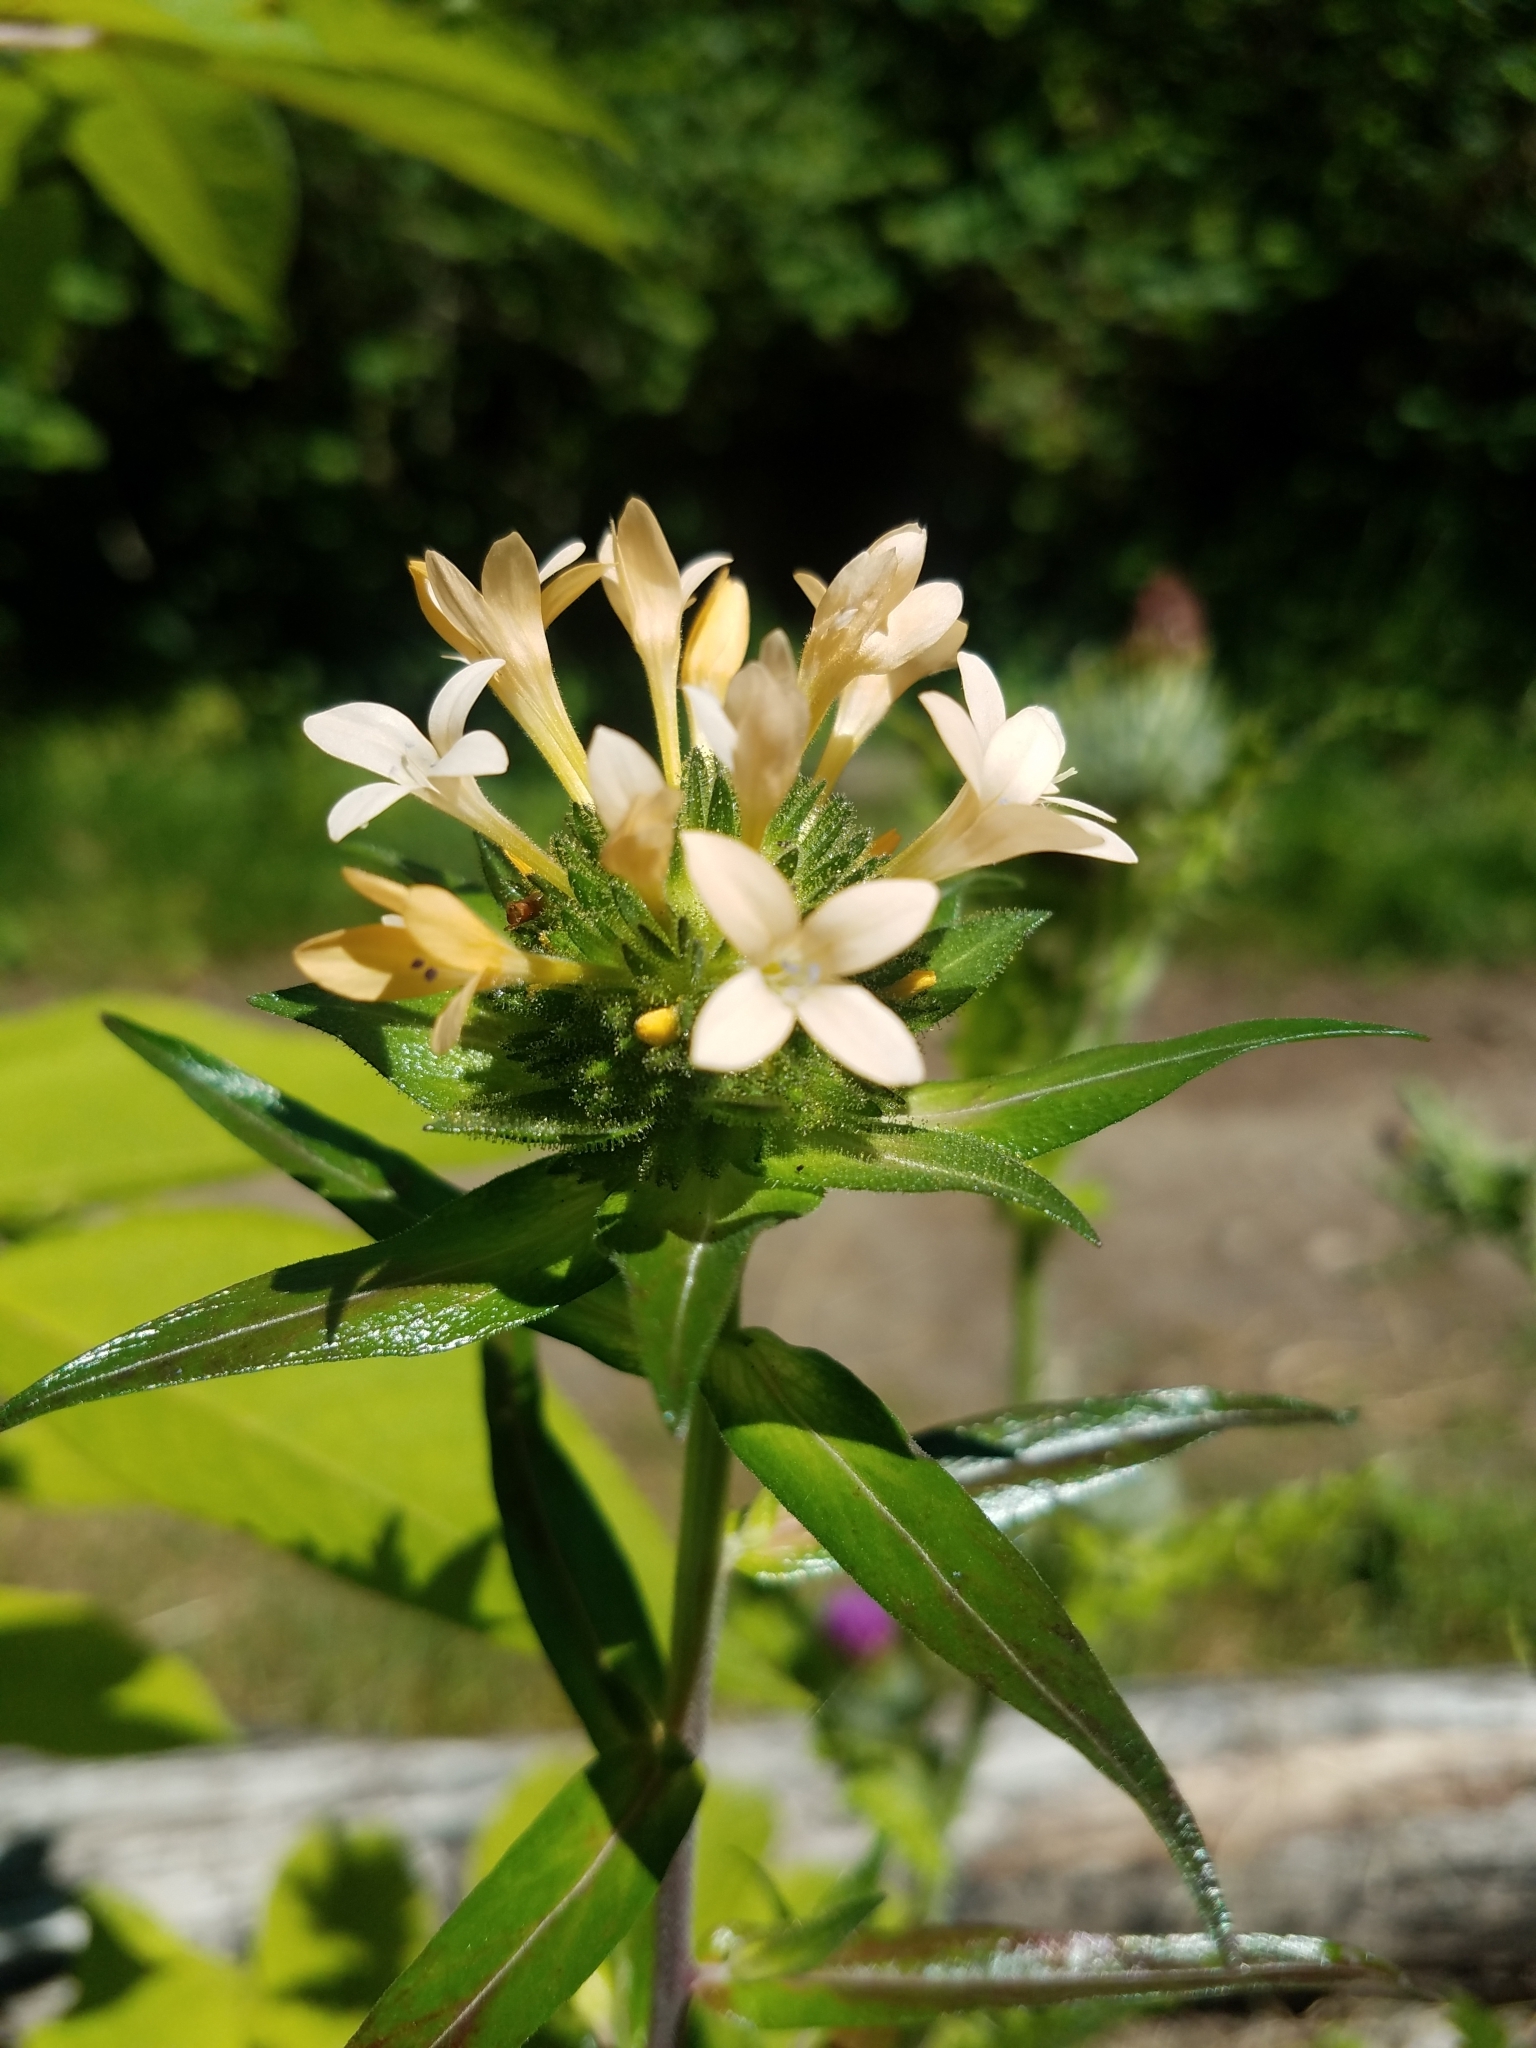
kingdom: Plantae
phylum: Tracheophyta
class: Magnoliopsida
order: Ericales
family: Polemoniaceae
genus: Collomia
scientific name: Collomia grandiflora
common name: California strawflower
